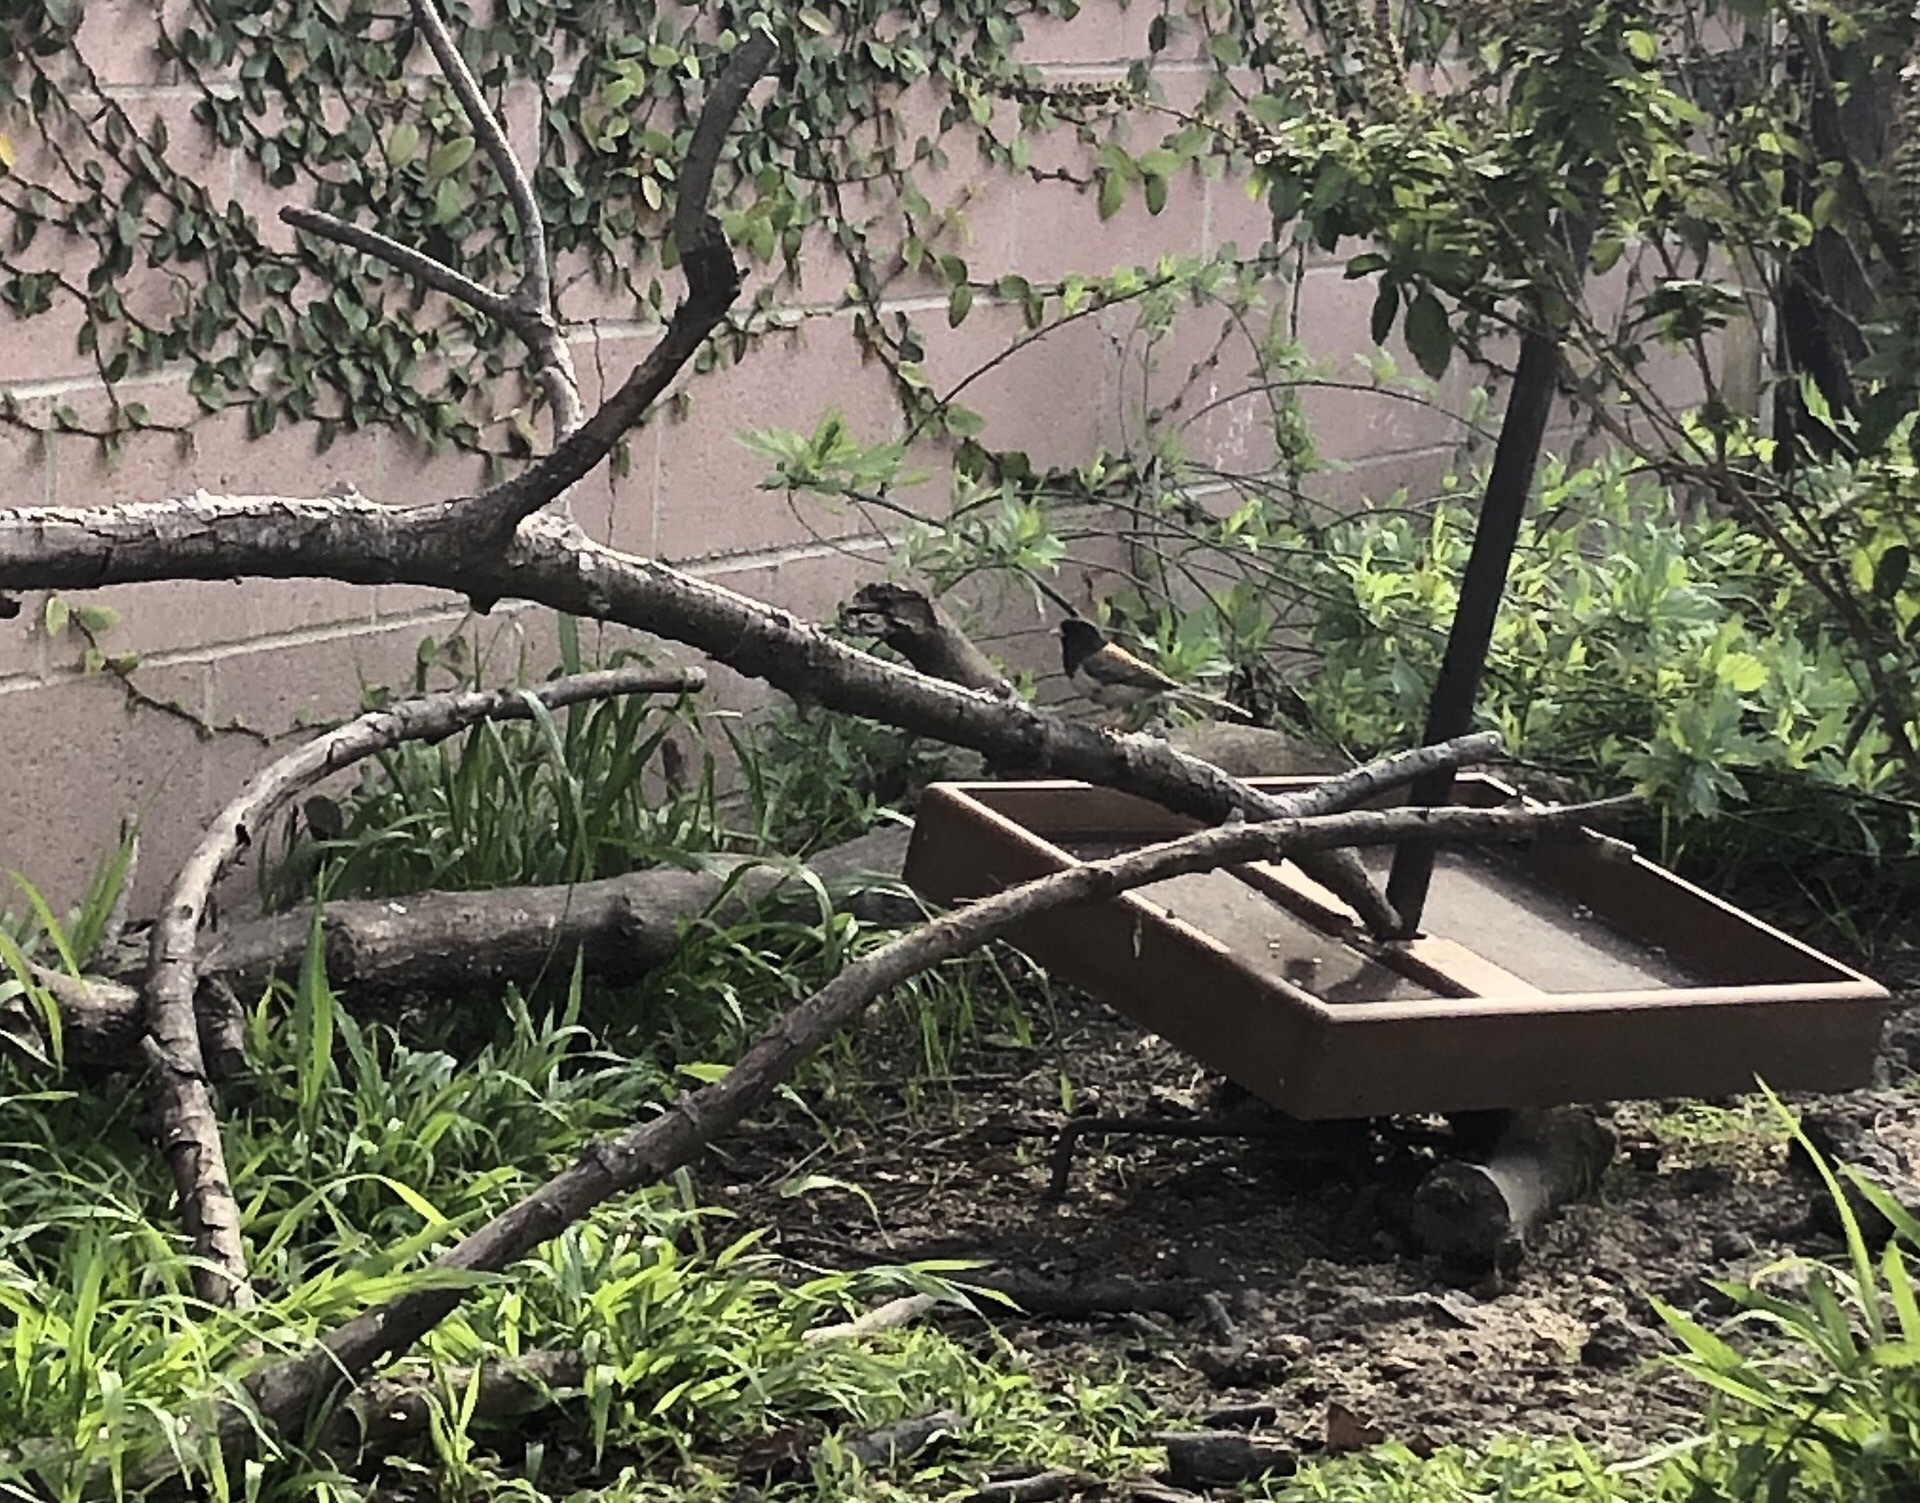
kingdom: Animalia
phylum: Chordata
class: Aves
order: Passeriformes
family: Passerellidae
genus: Junco
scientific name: Junco hyemalis
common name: Dark-eyed junco
